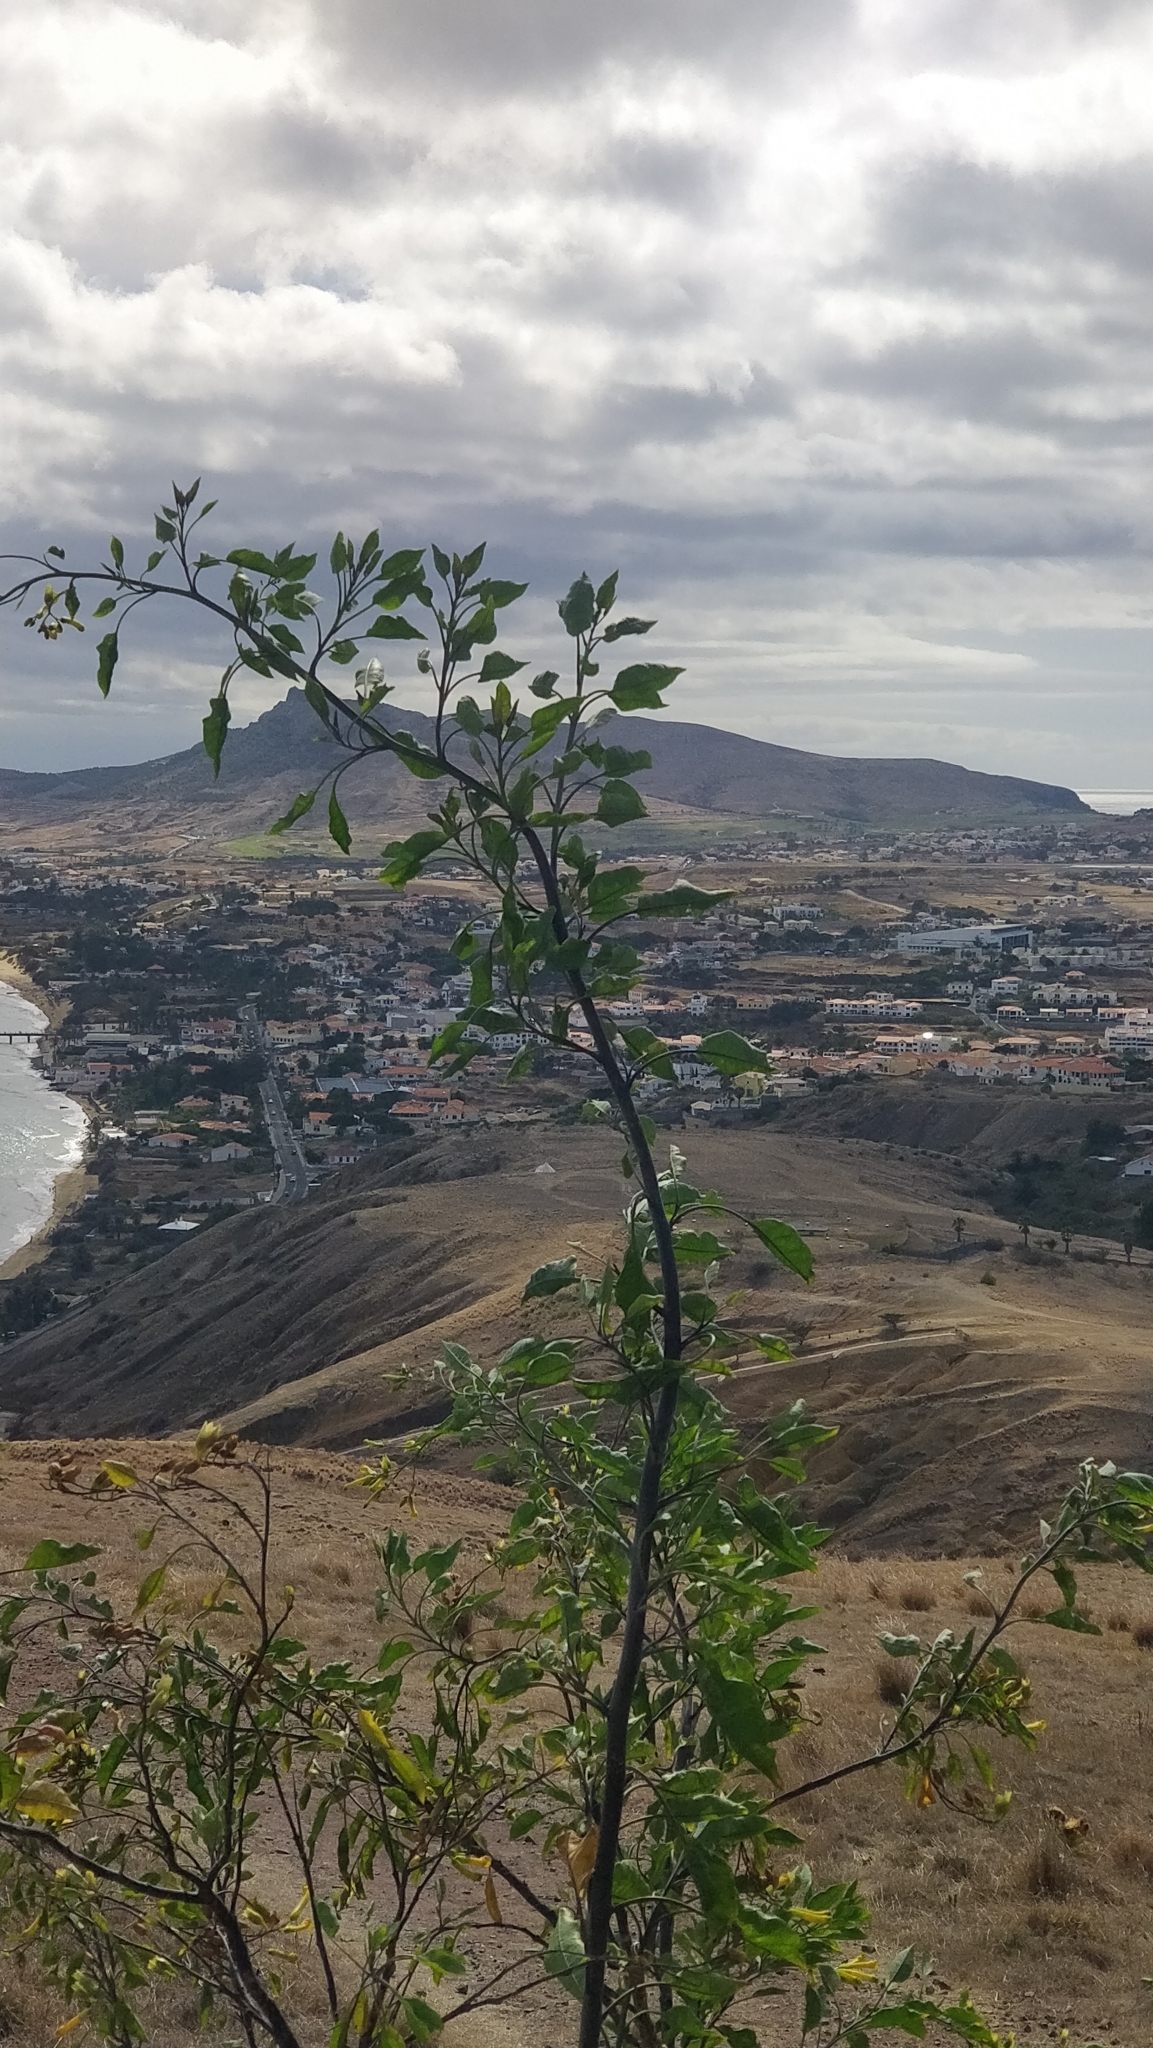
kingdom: Plantae
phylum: Tracheophyta
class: Magnoliopsida
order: Solanales
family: Solanaceae
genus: Nicotiana
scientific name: Nicotiana glauca
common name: Tree tobacco
